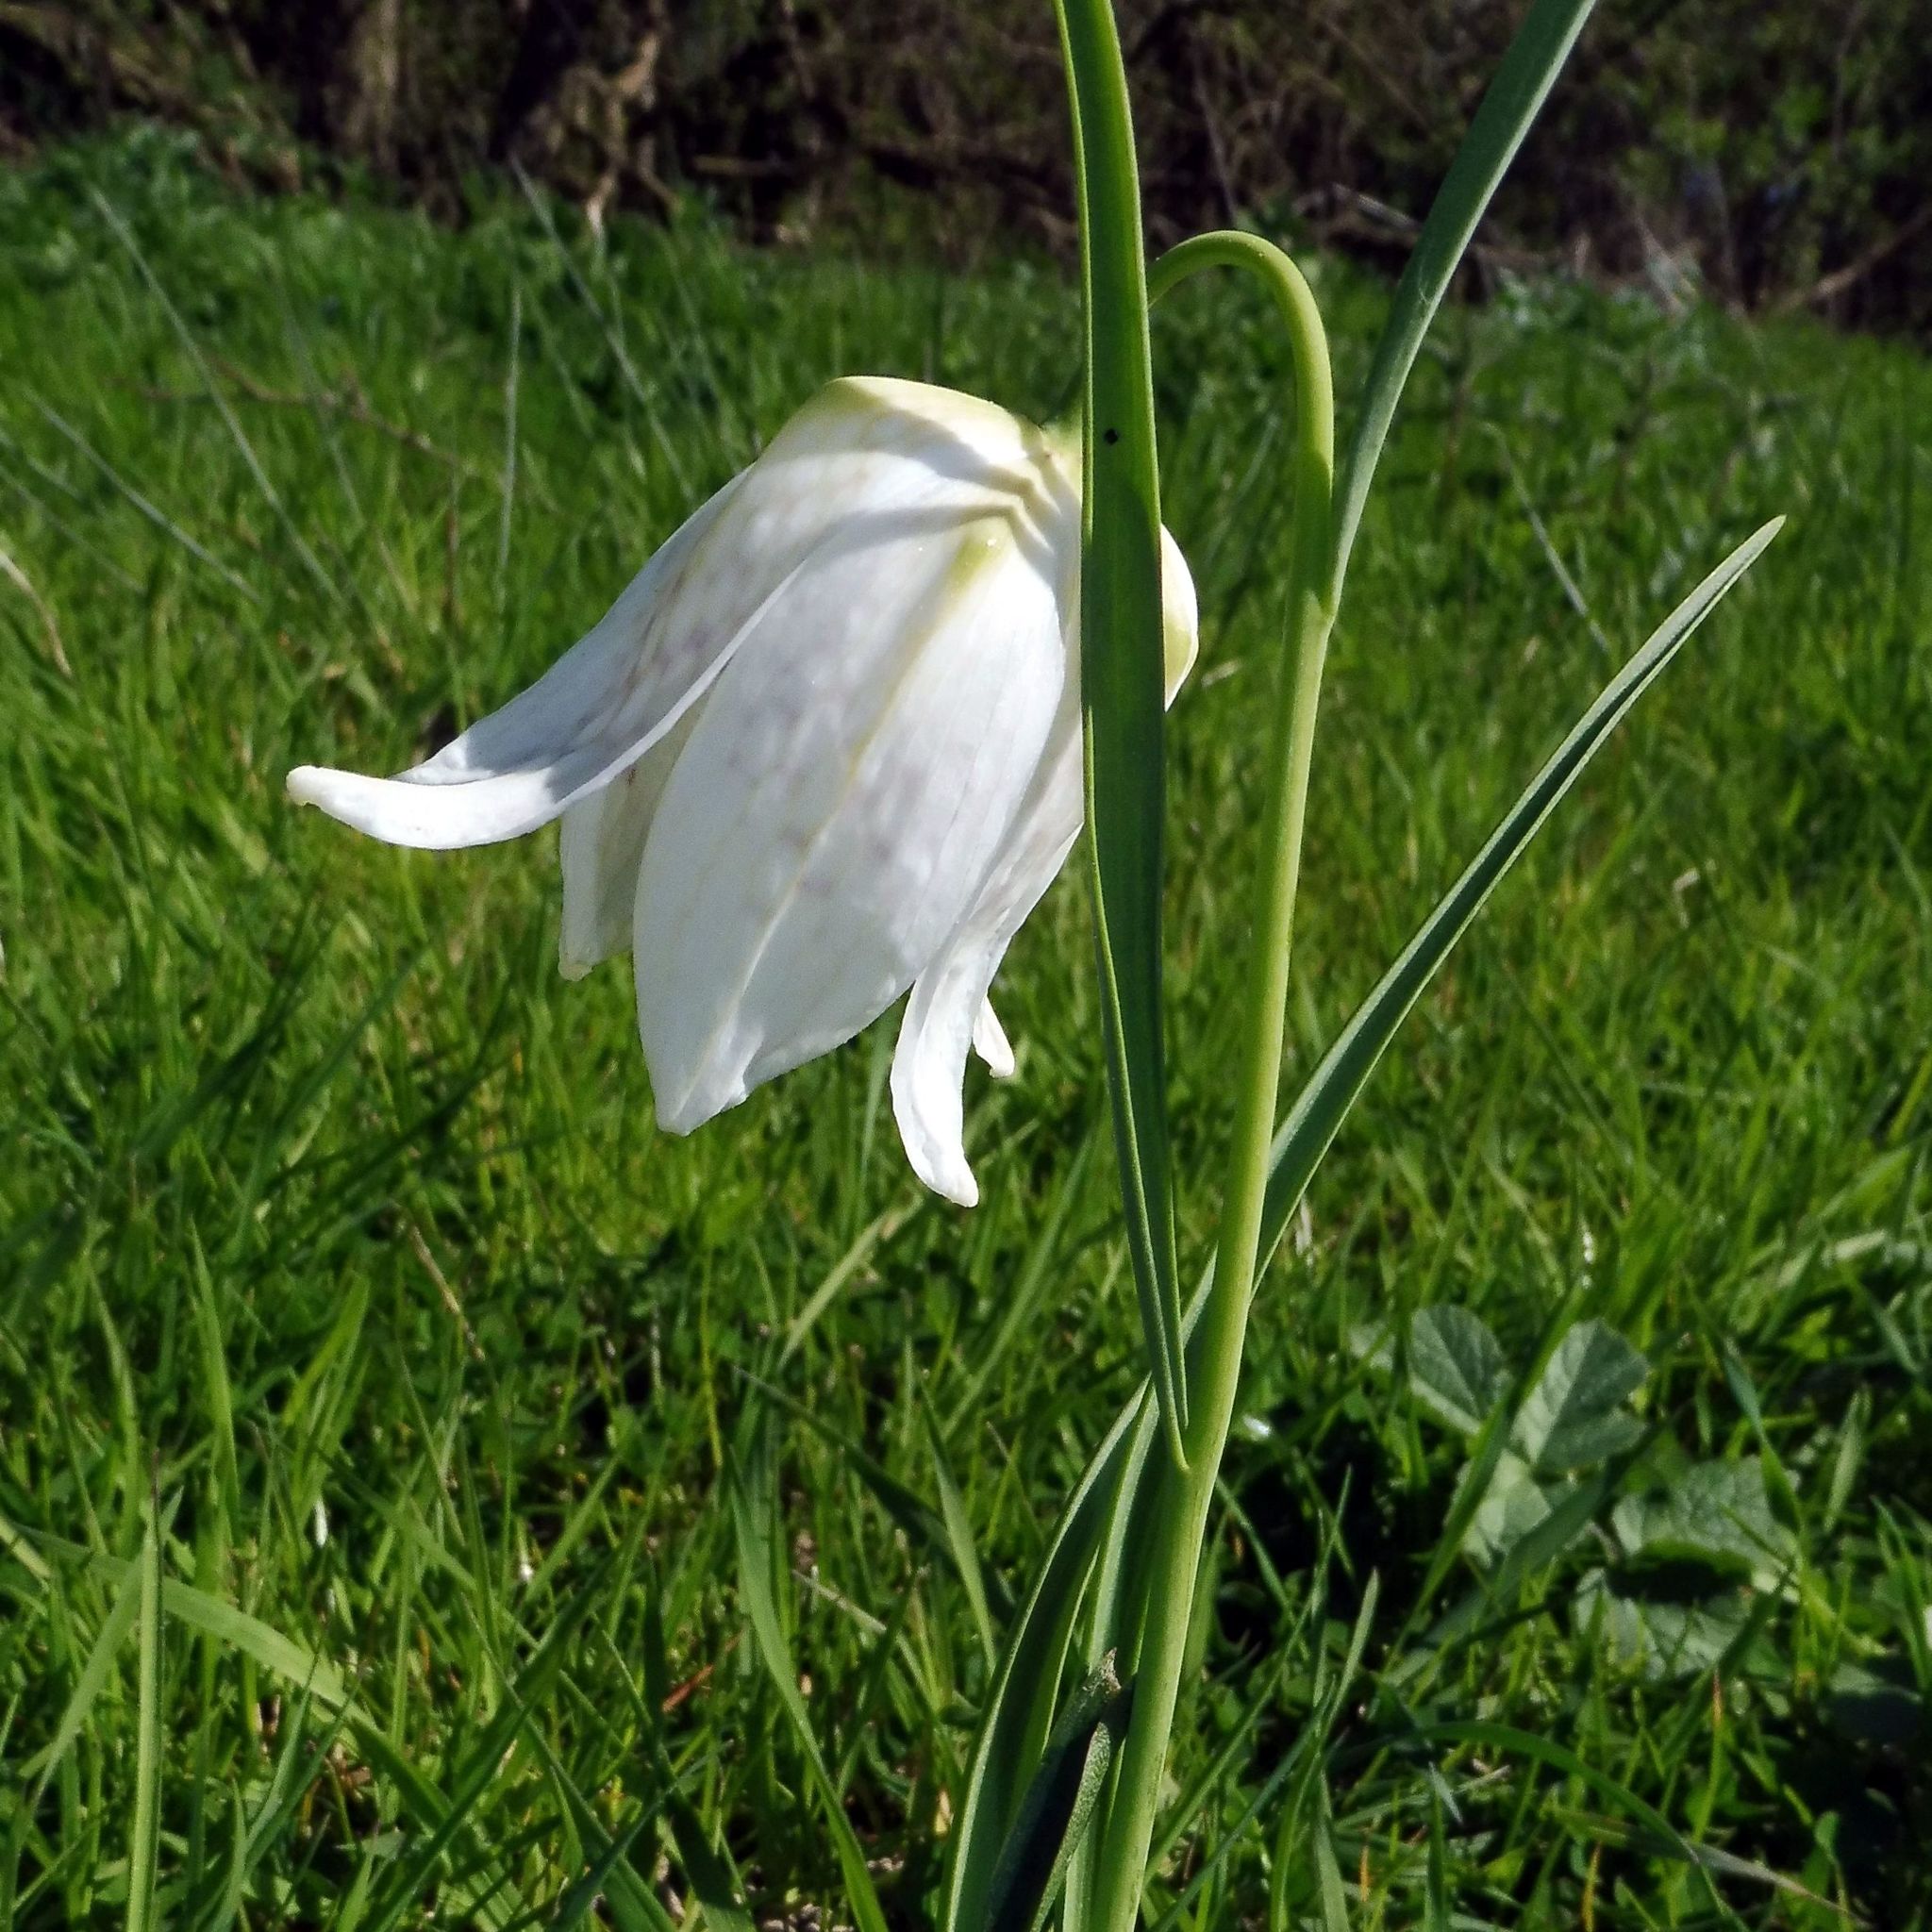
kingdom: Plantae
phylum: Tracheophyta
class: Liliopsida
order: Liliales
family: Liliaceae
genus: Fritillaria
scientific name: Fritillaria meleagris
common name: Fritillary
